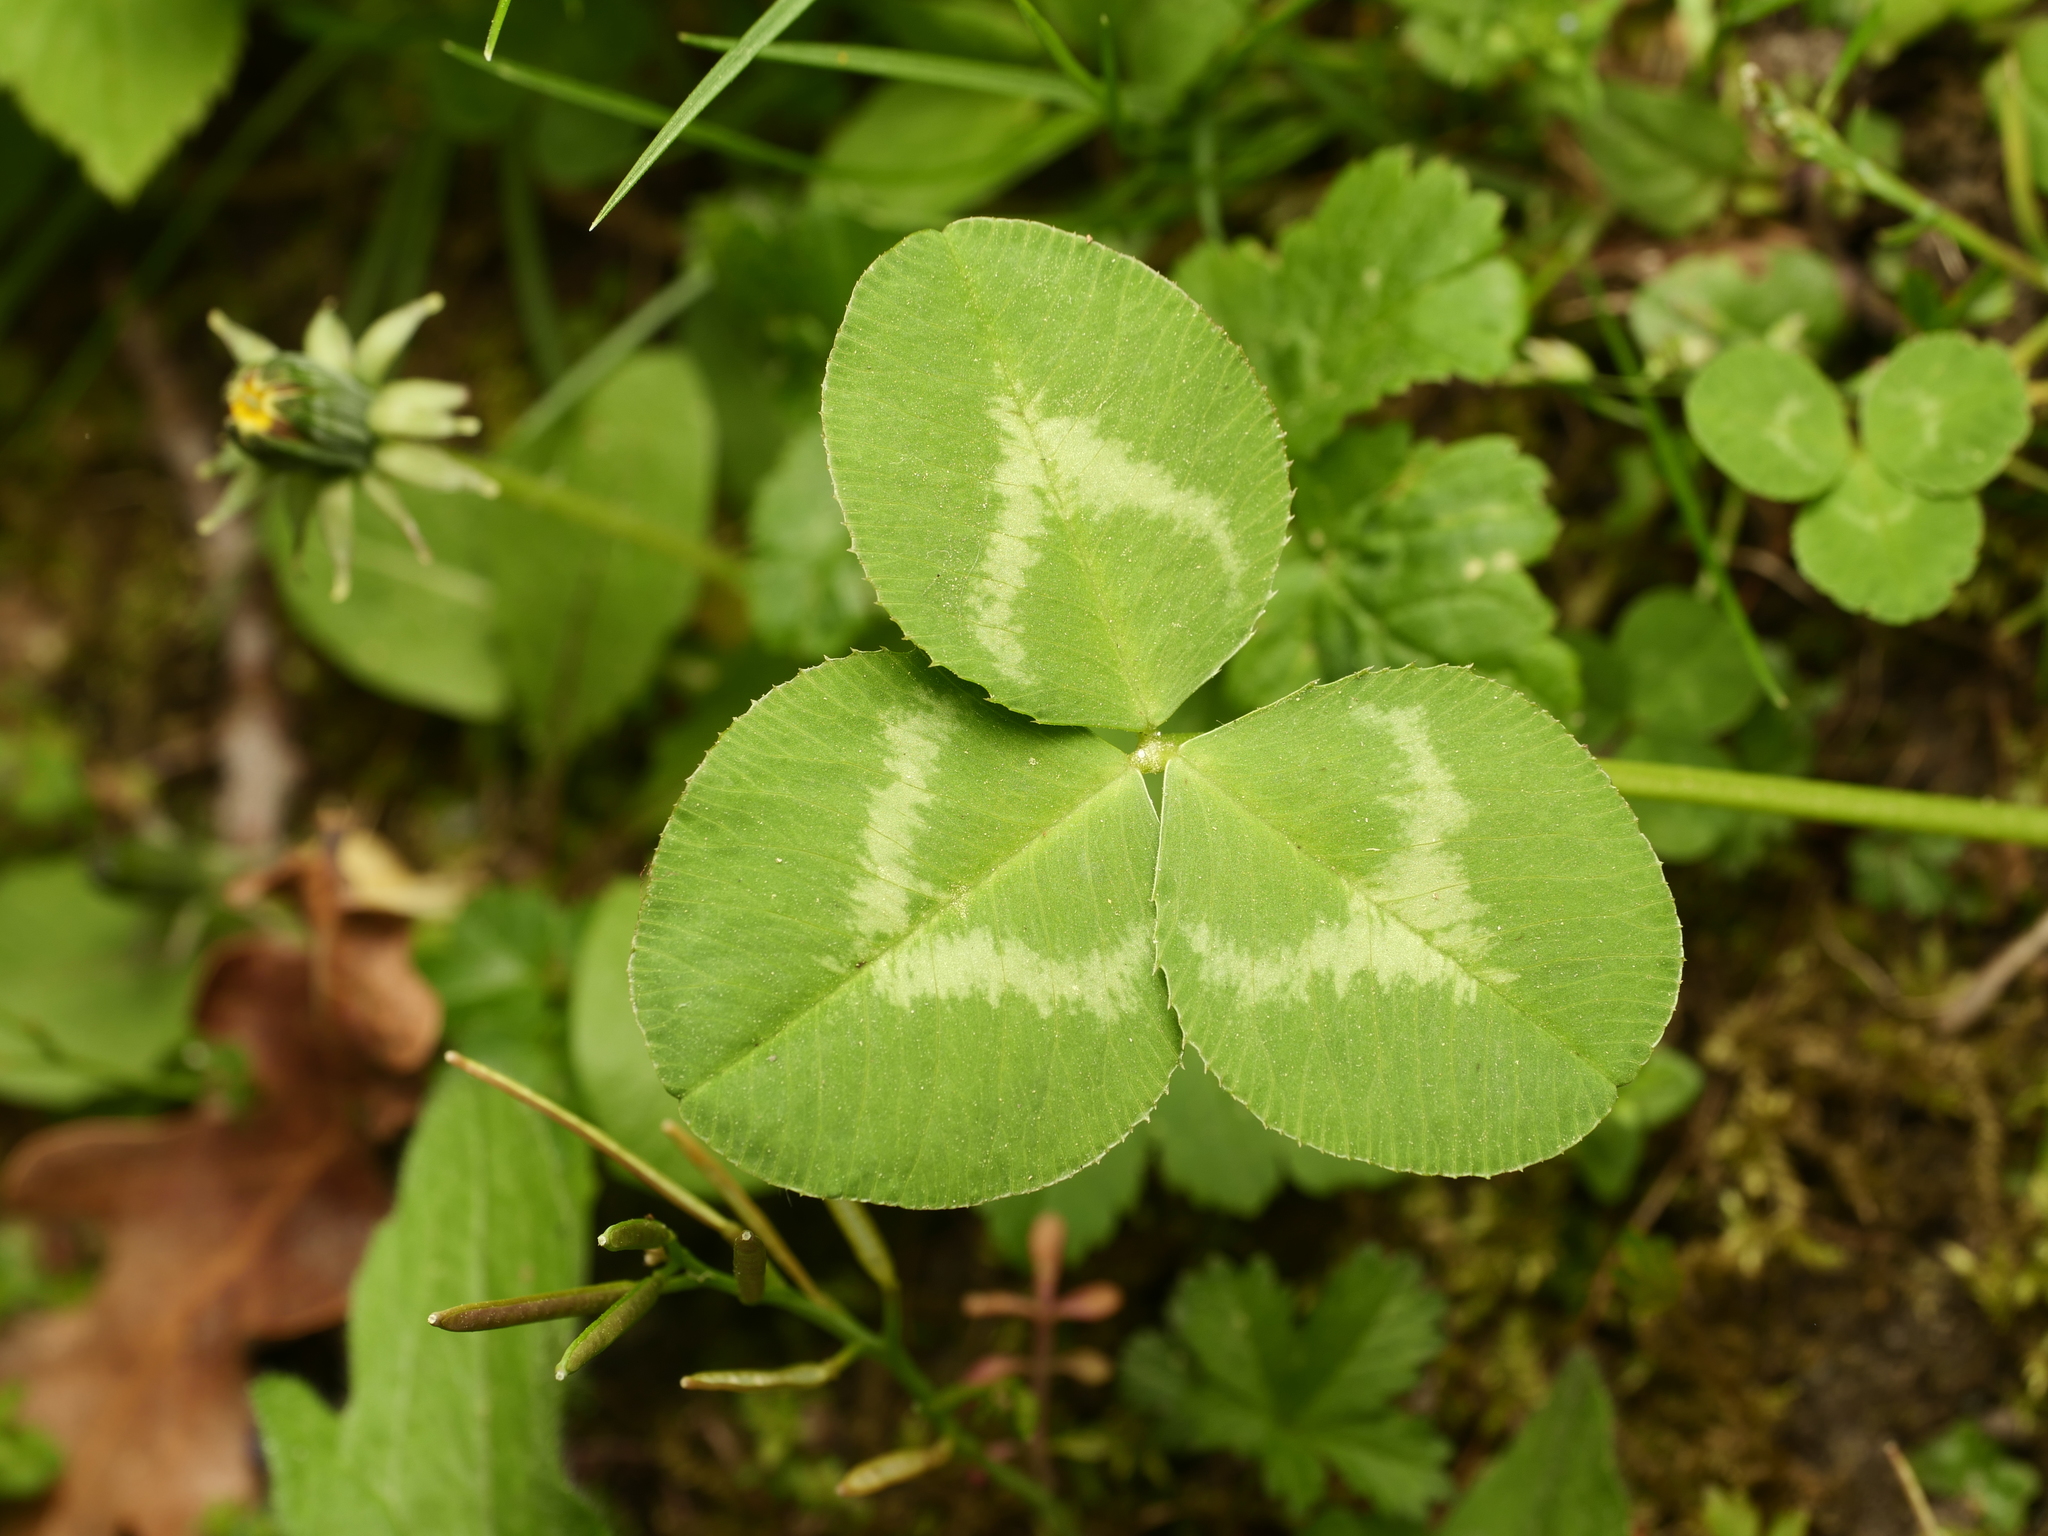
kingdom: Plantae
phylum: Tracheophyta
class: Magnoliopsida
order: Fabales
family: Fabaceae
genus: Trifolium
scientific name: Trifolium repens
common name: White clover
